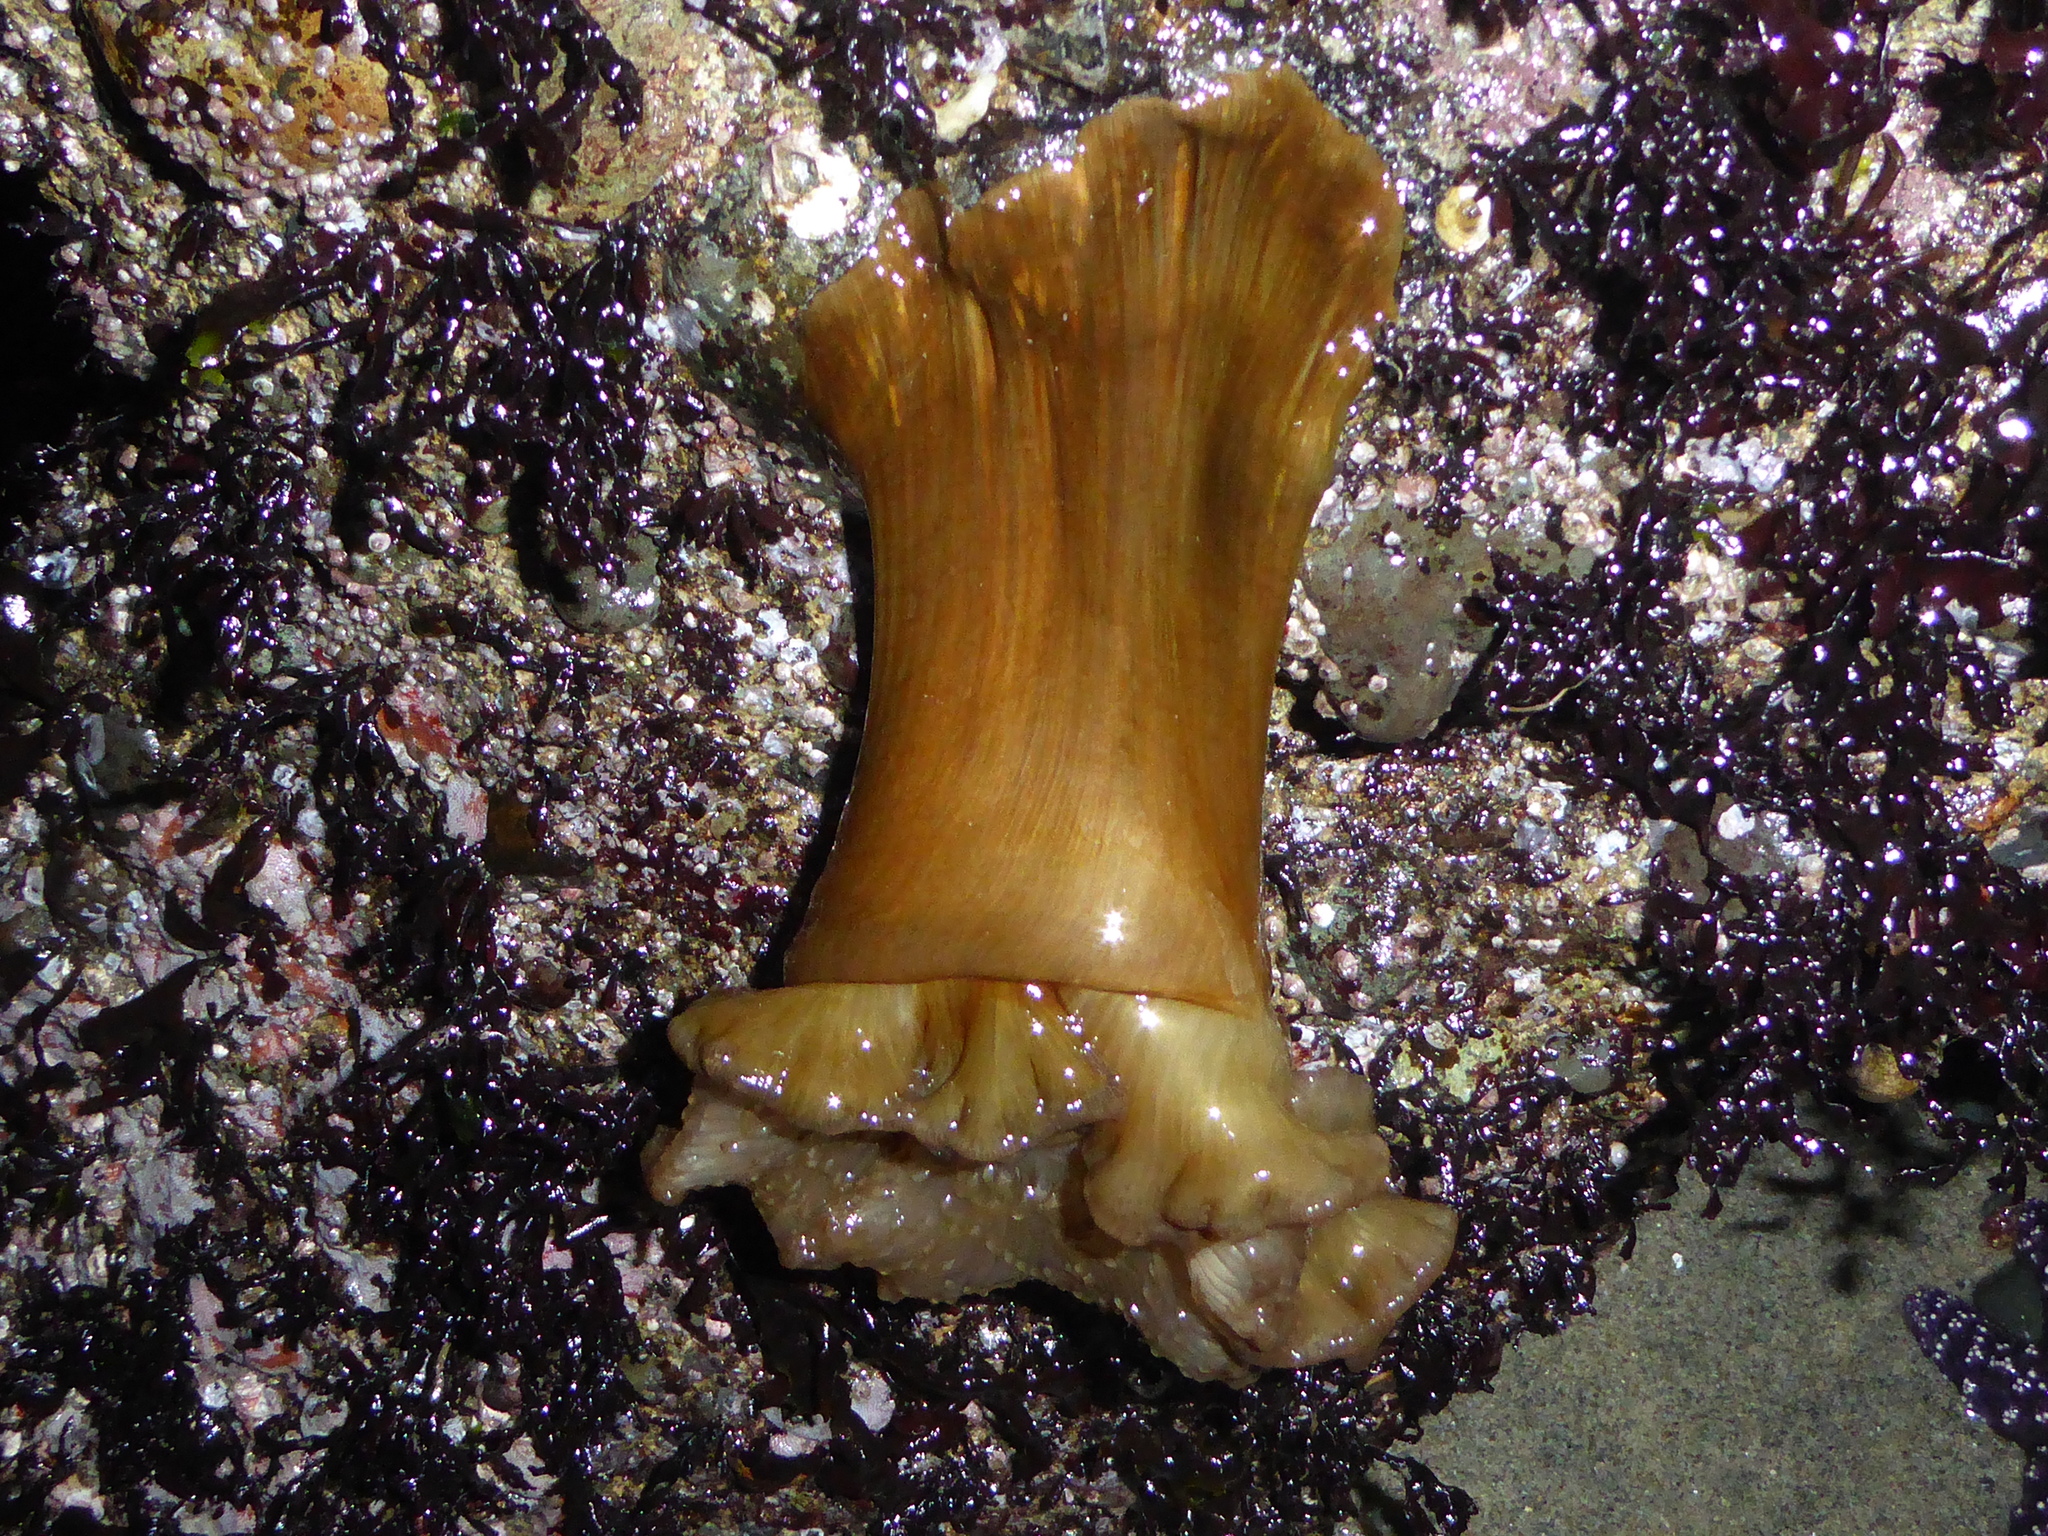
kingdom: Animalia
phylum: Cnidaria
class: Anthozoa
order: Actiniaria
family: Metridiidae
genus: Metridium
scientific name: Metridium farcimen
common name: Gigantic anemone
